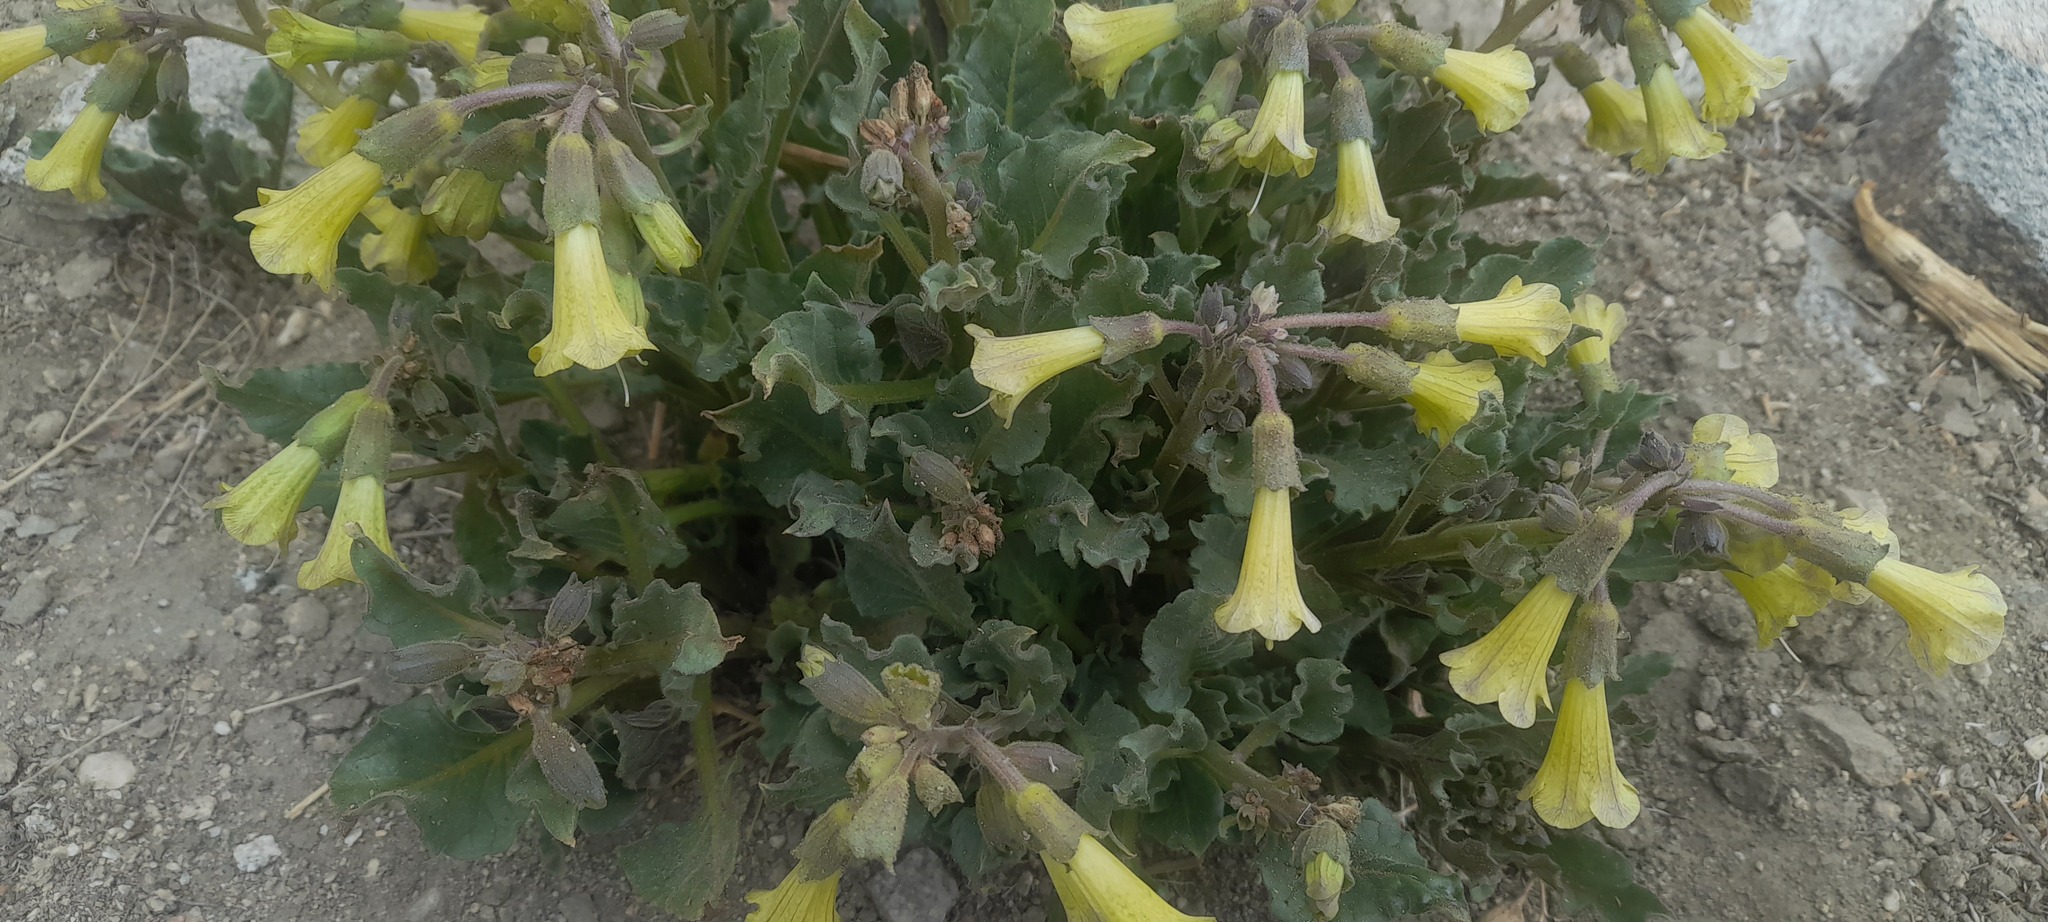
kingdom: Plantae
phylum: Tracheophyta
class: Magnoliopsida
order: Solanales
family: Solanaceae
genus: Physochlaina
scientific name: Physochlaina praealta
